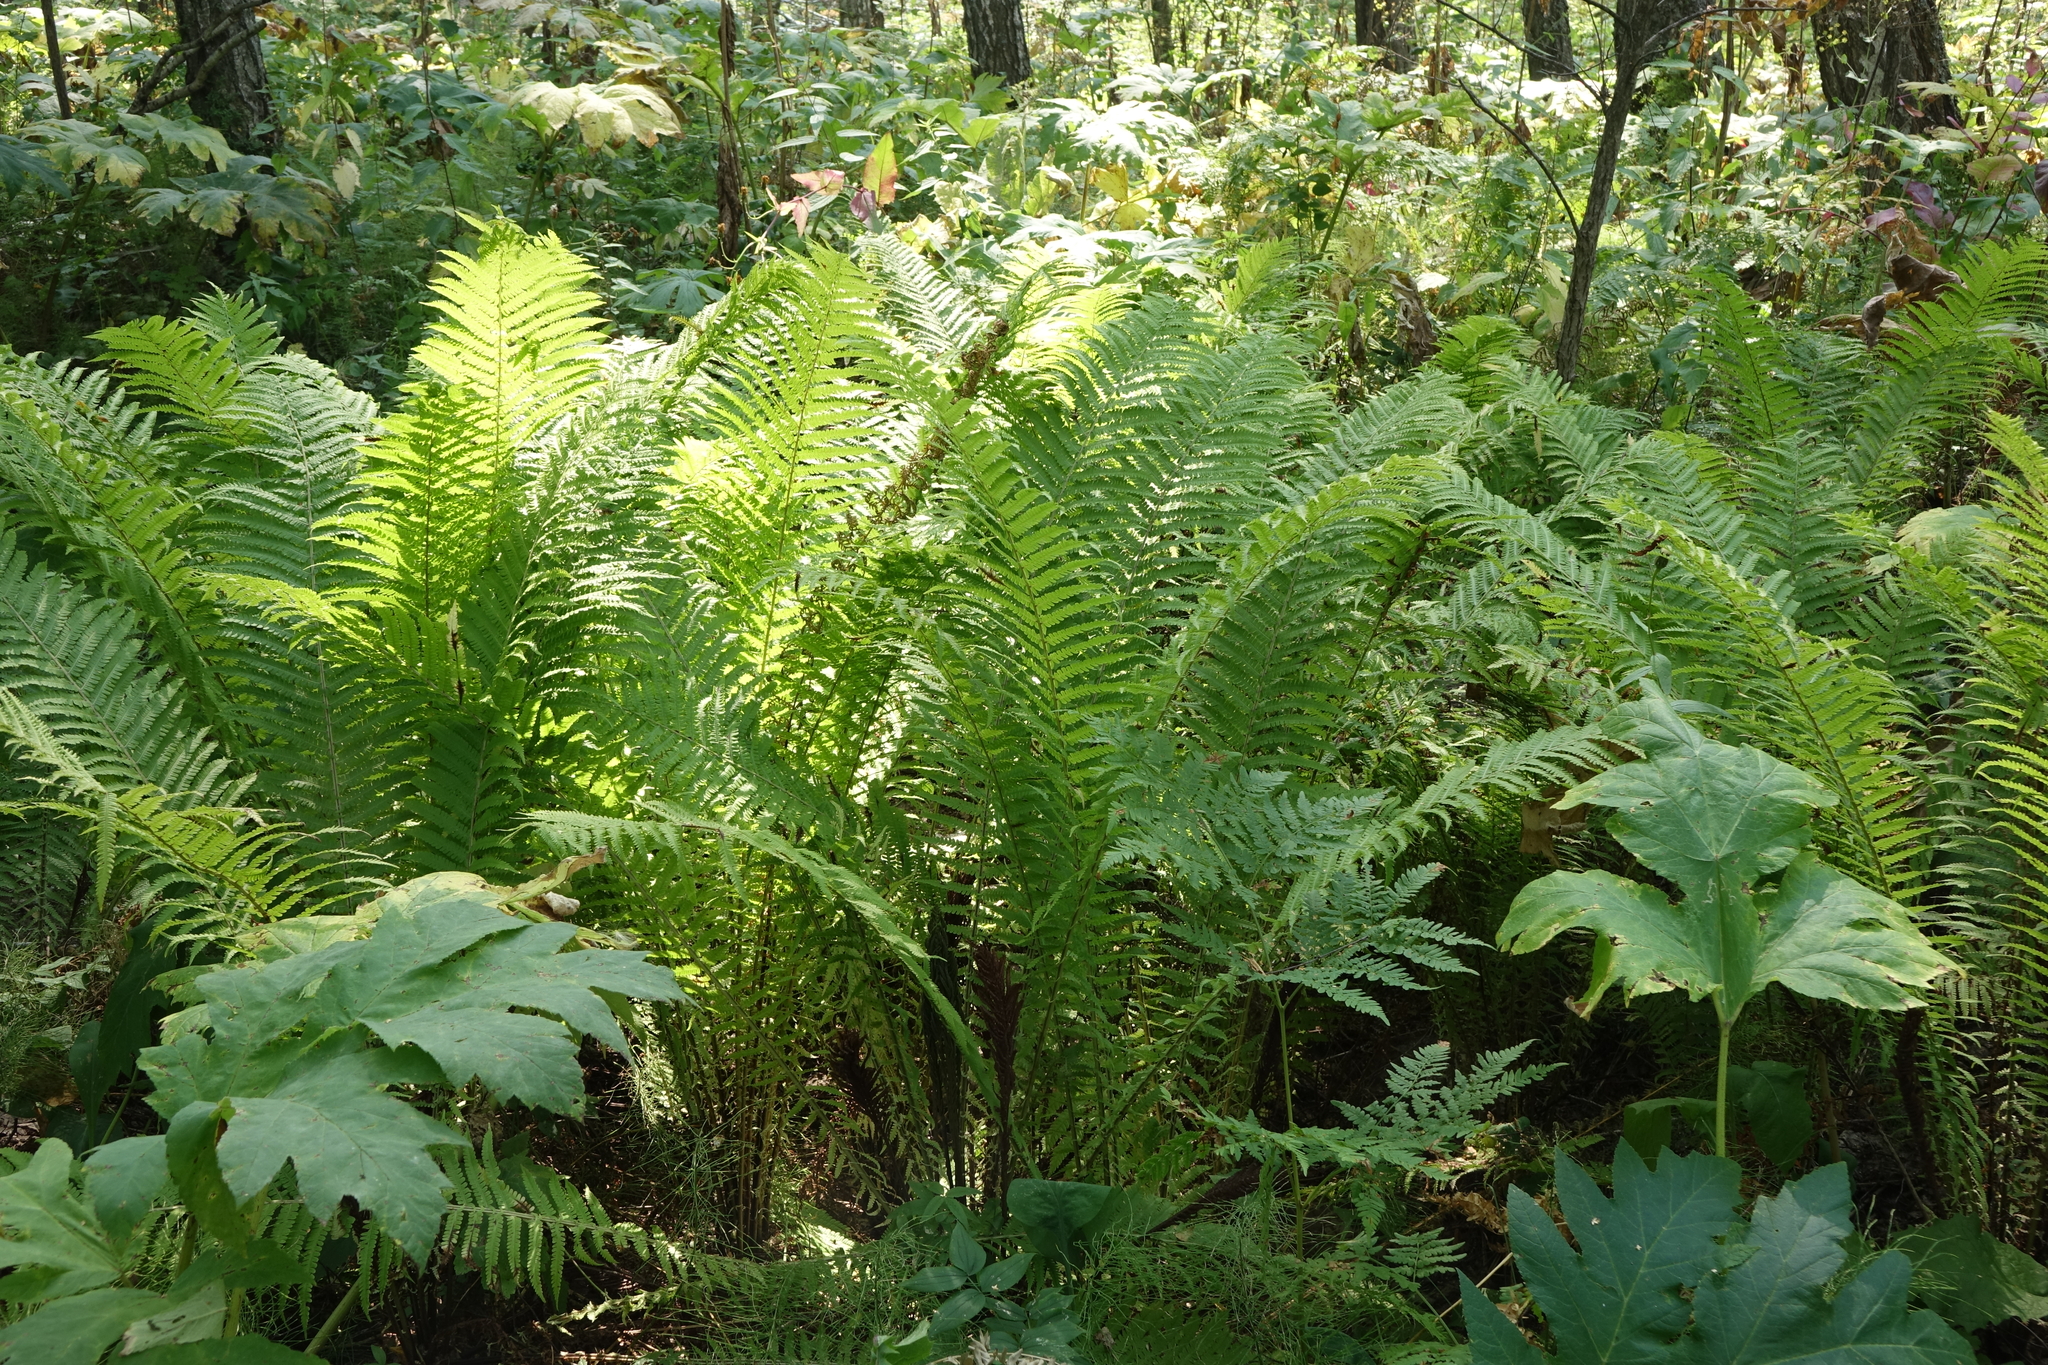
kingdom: Plantae
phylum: Tracheophyta
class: Polypodiopsida
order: Polypodiales
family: Onocleaceae
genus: Matteuccia
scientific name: Matteuccia struthiopteris
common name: Ostrich fern
